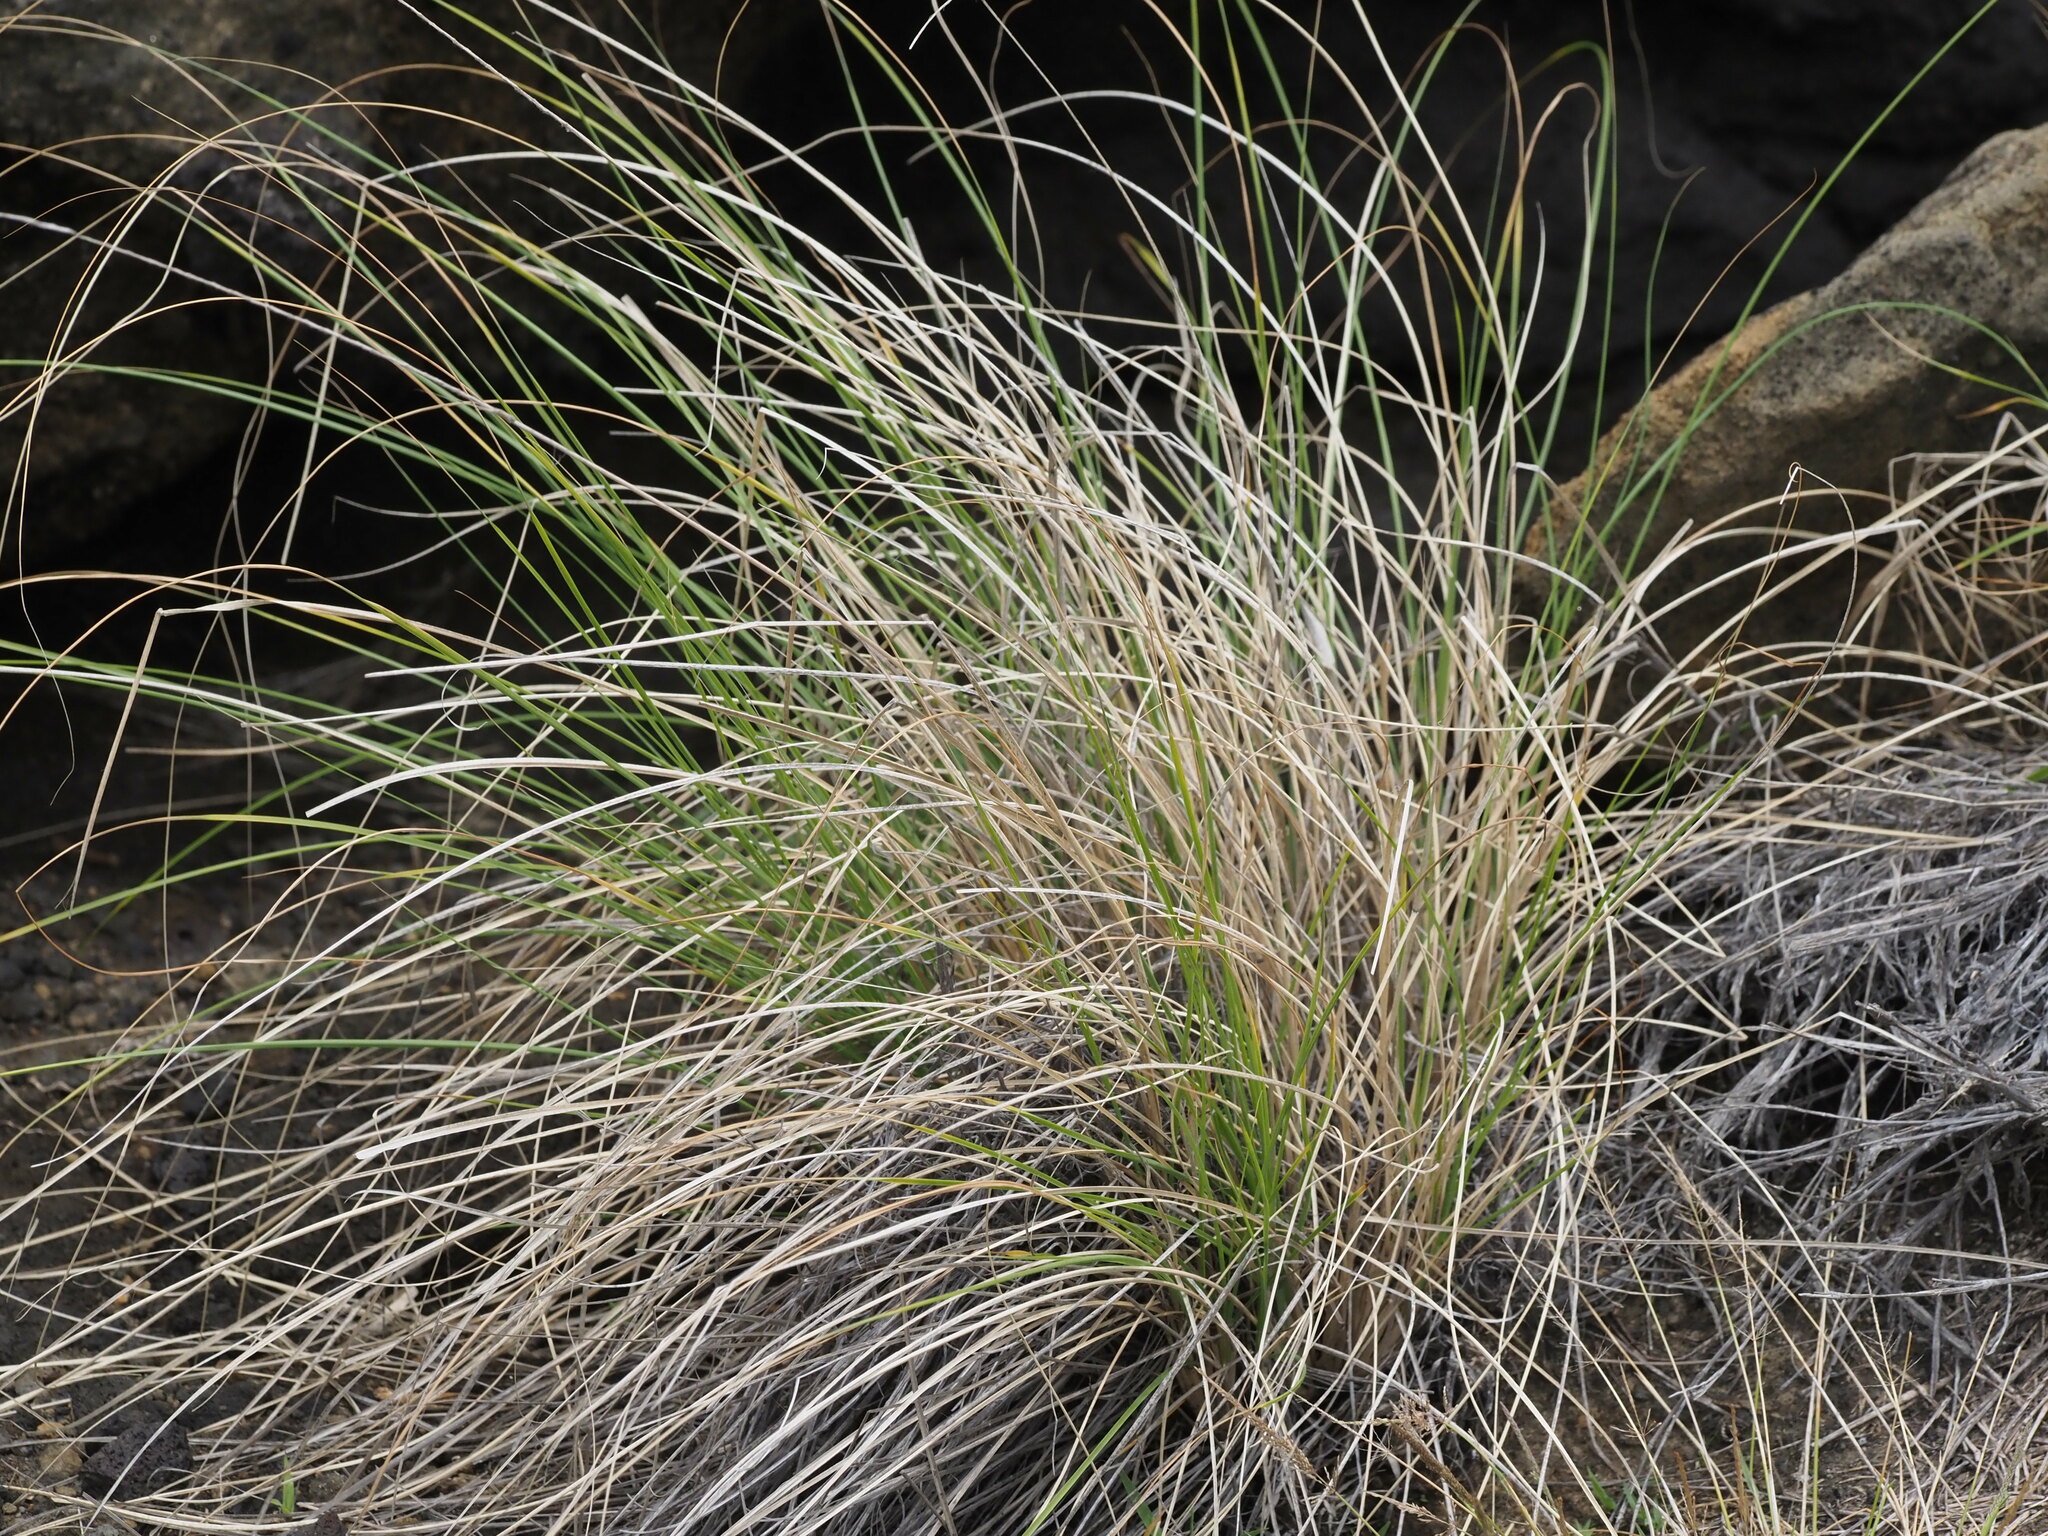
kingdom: Plantae
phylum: Tracheophyta
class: Liliopsida
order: Poales
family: Poaceae
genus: Cenchrus
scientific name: Cenchrus setaceus
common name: Crimson fountaingrass
